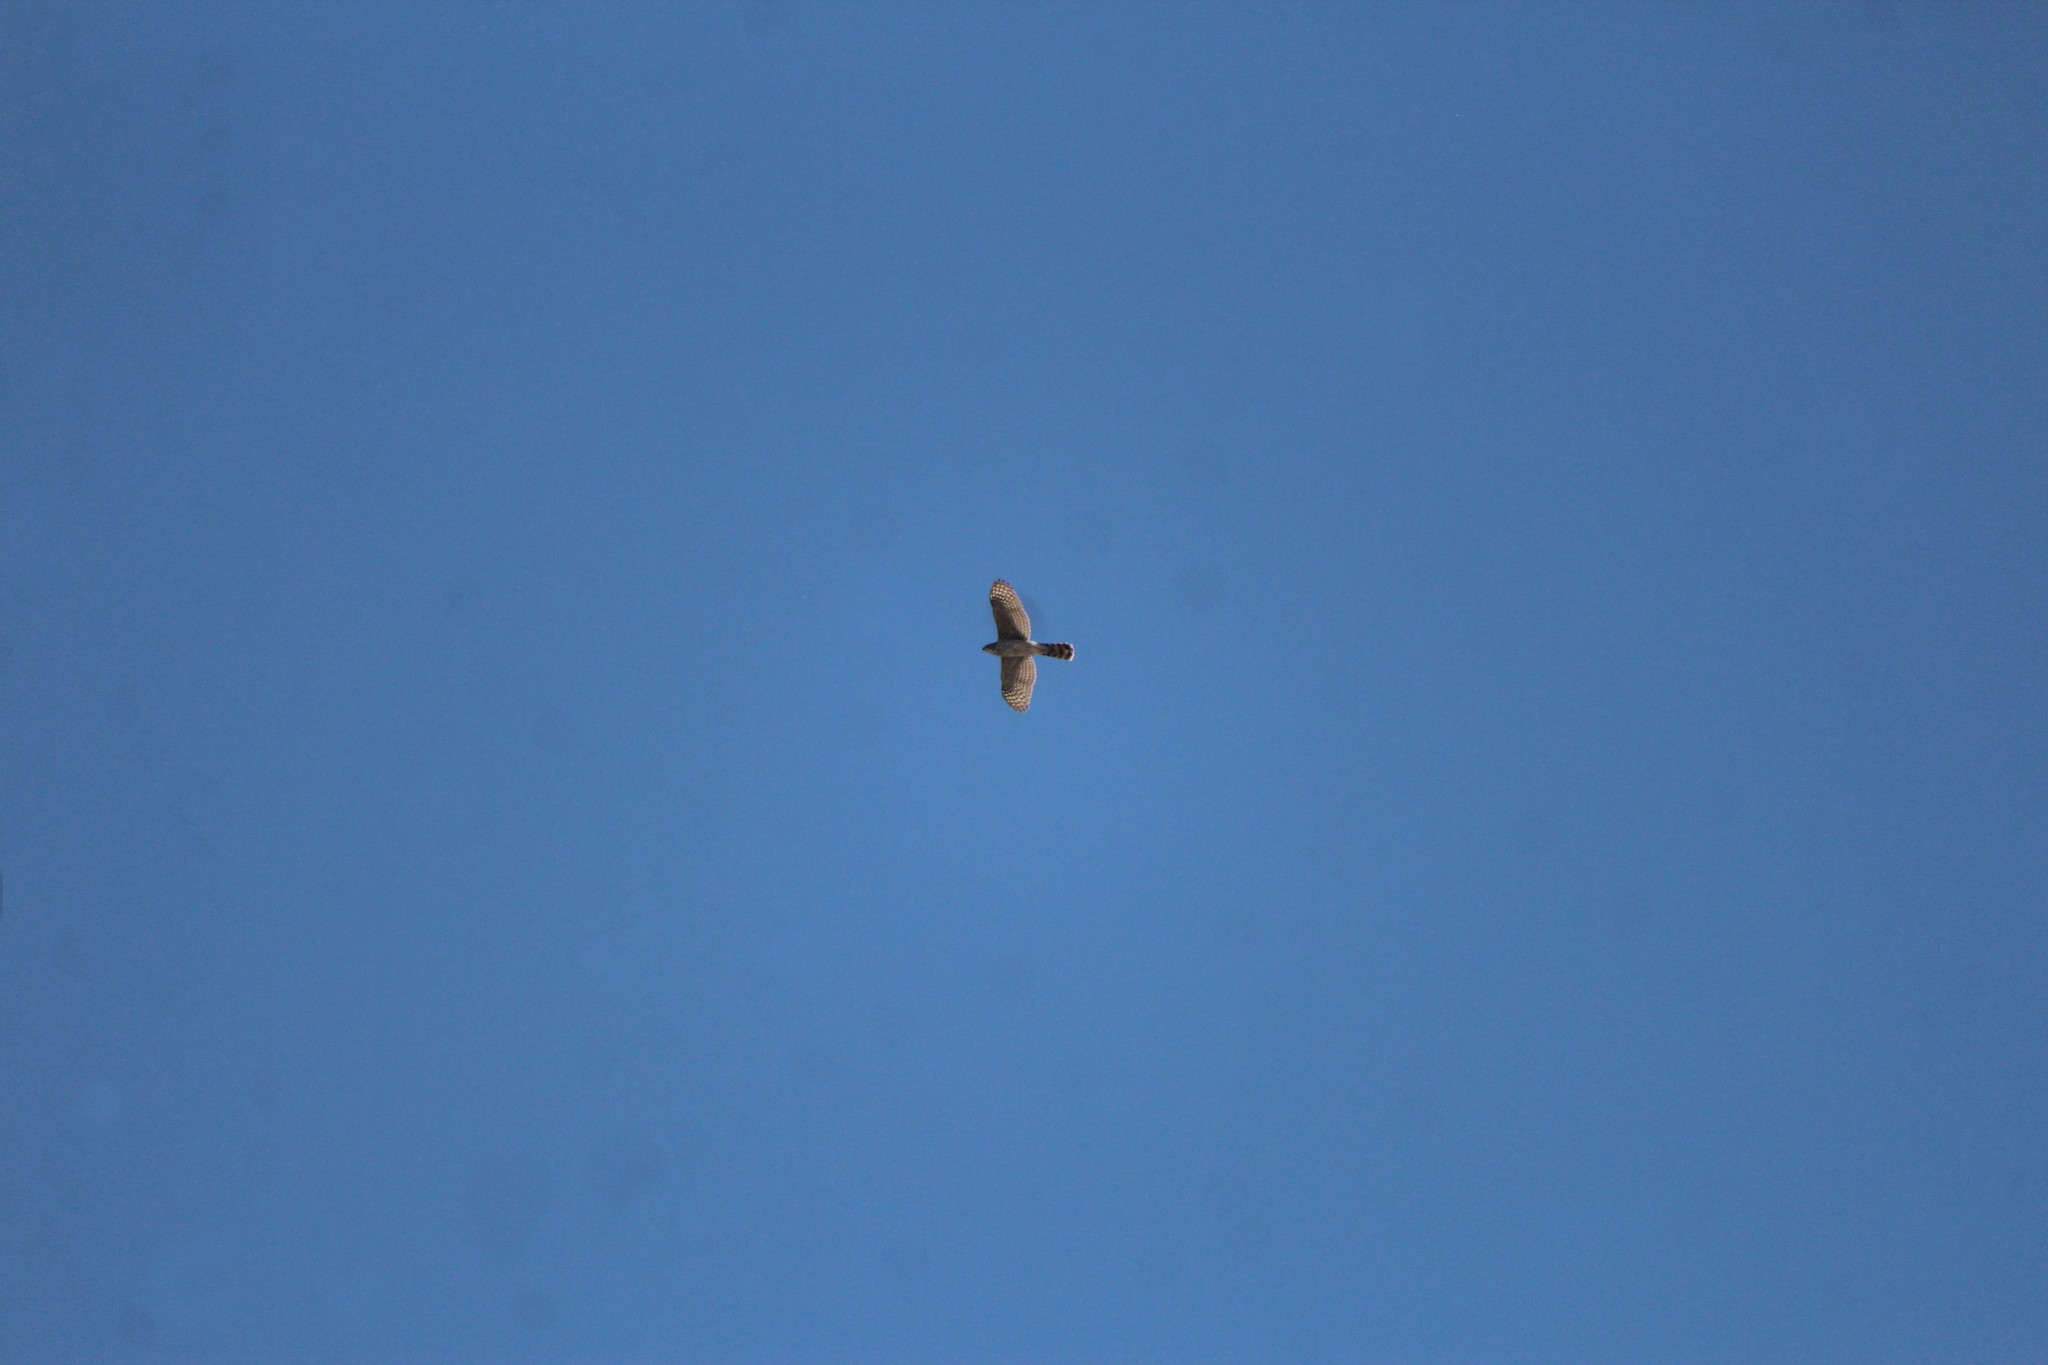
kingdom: Animalia
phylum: Chordata
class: Aves
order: Accipitriformes
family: Accipitridae
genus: Accipiter
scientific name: Accipiter cooperii
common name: Cooper's hawk
